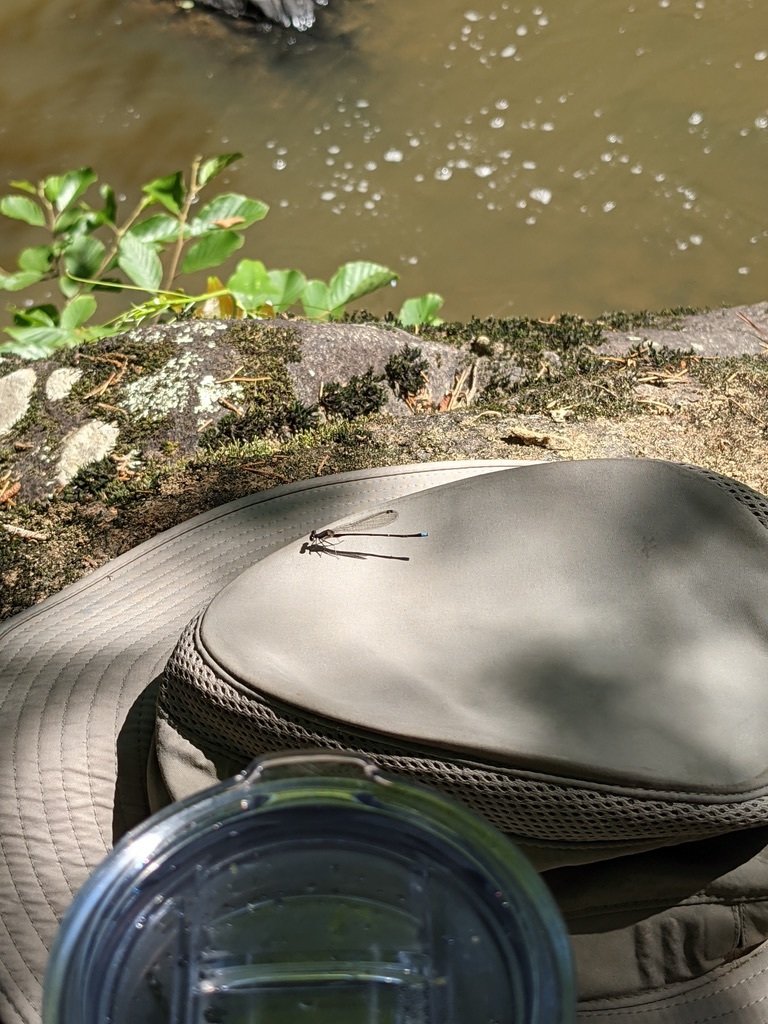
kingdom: Animalia
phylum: Arthropoda
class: Insecta
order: Odonata
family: Coenagrionidae
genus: Argia
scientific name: Argia tibialis
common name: Blue-tipped dancer
